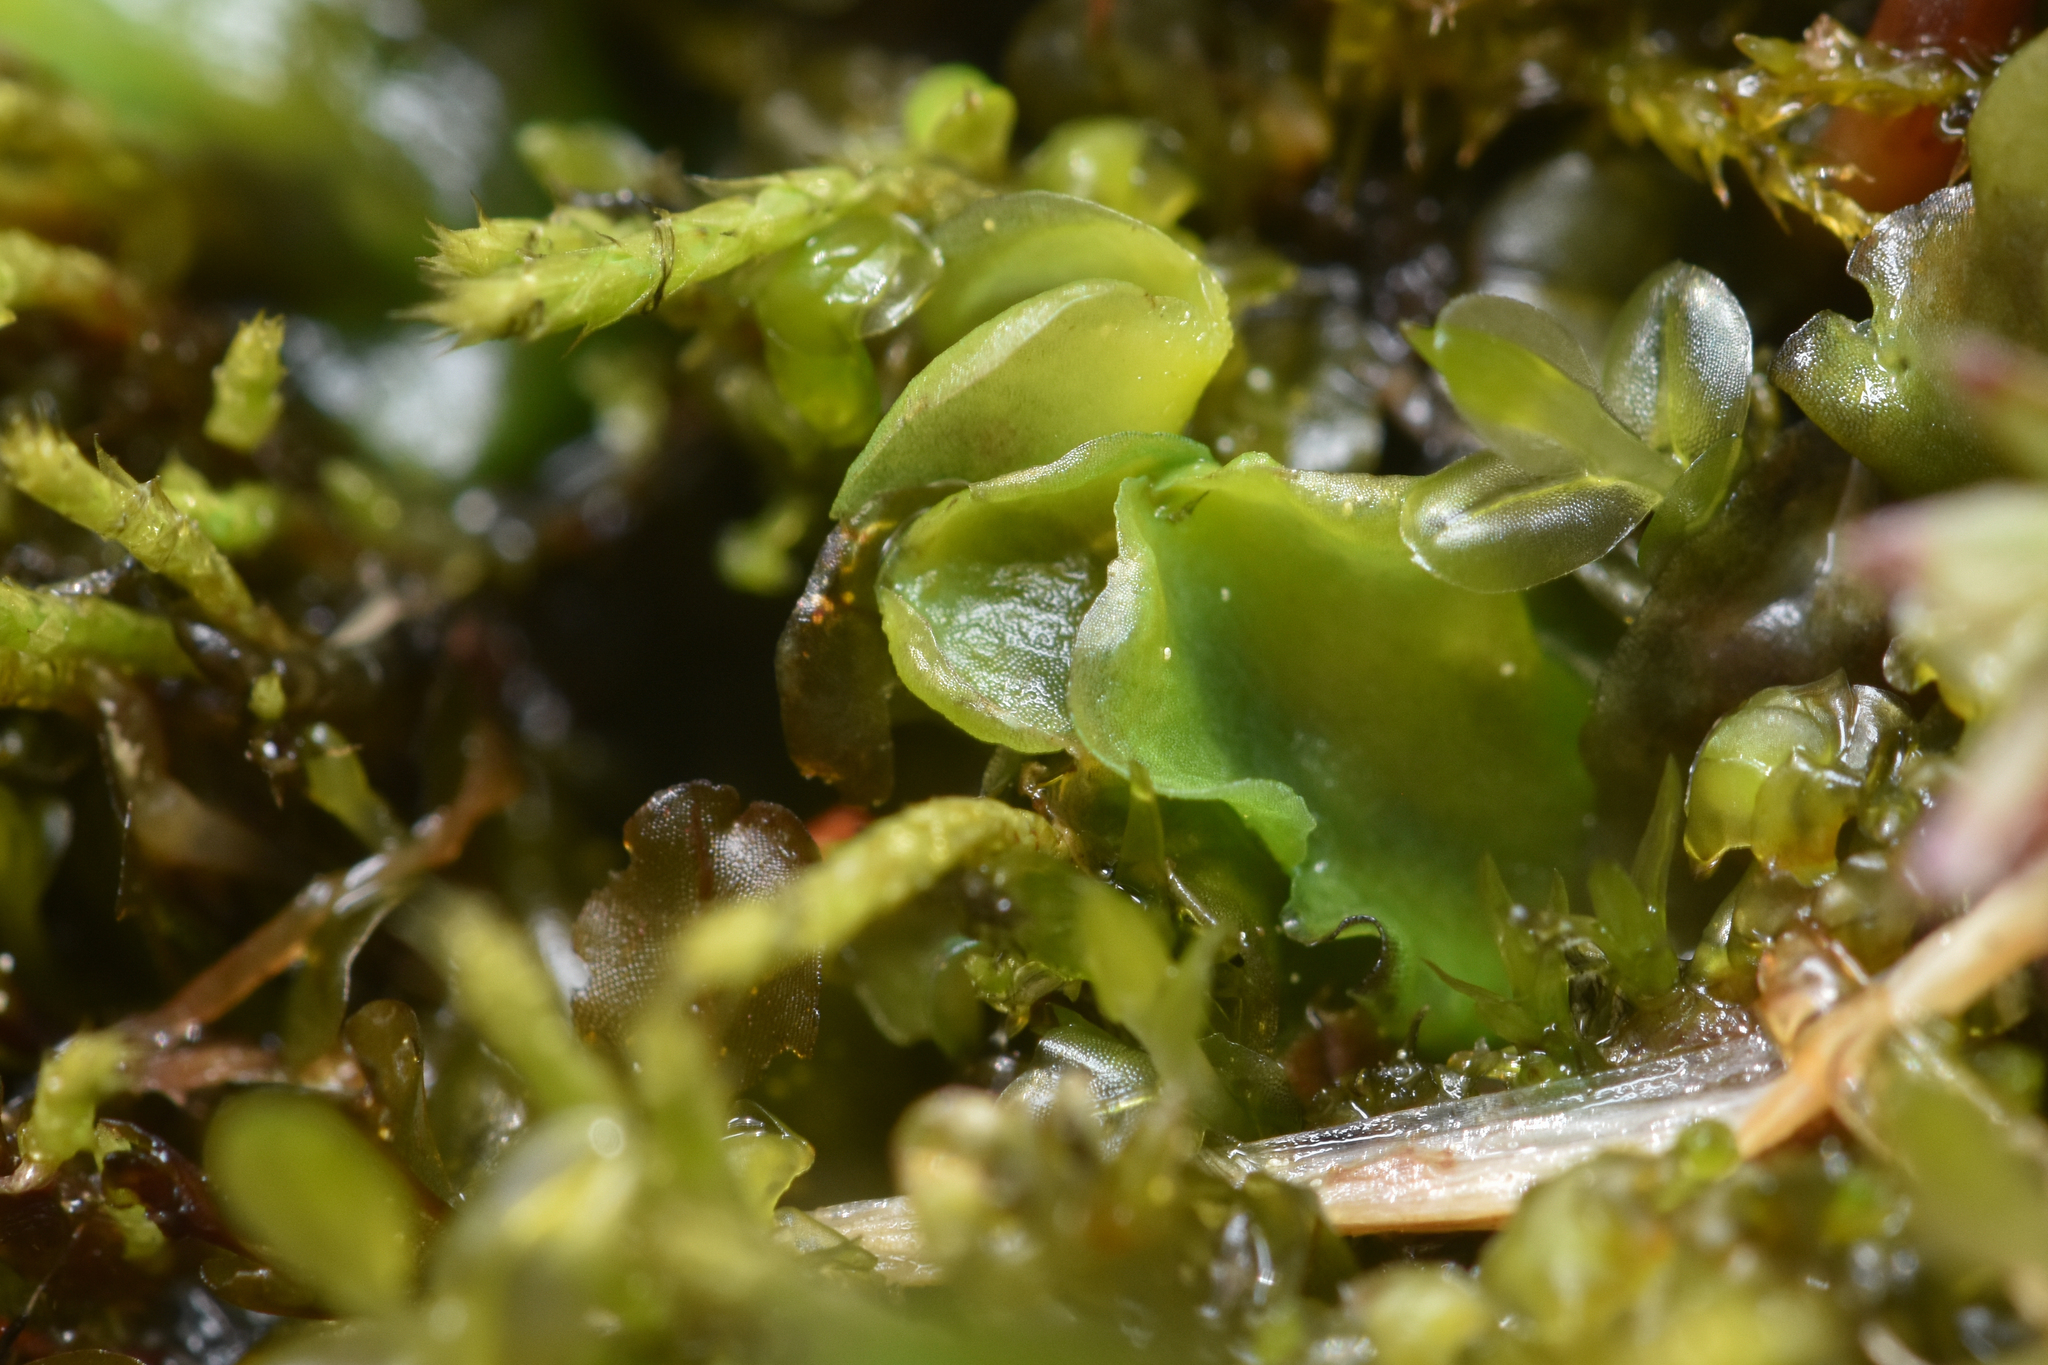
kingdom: Plantae
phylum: Marchantiophyta
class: Jungermanniopsida
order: Pelliales
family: Pelliaceae
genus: Pellia
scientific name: Pellia neesiana
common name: Nees  pellia
